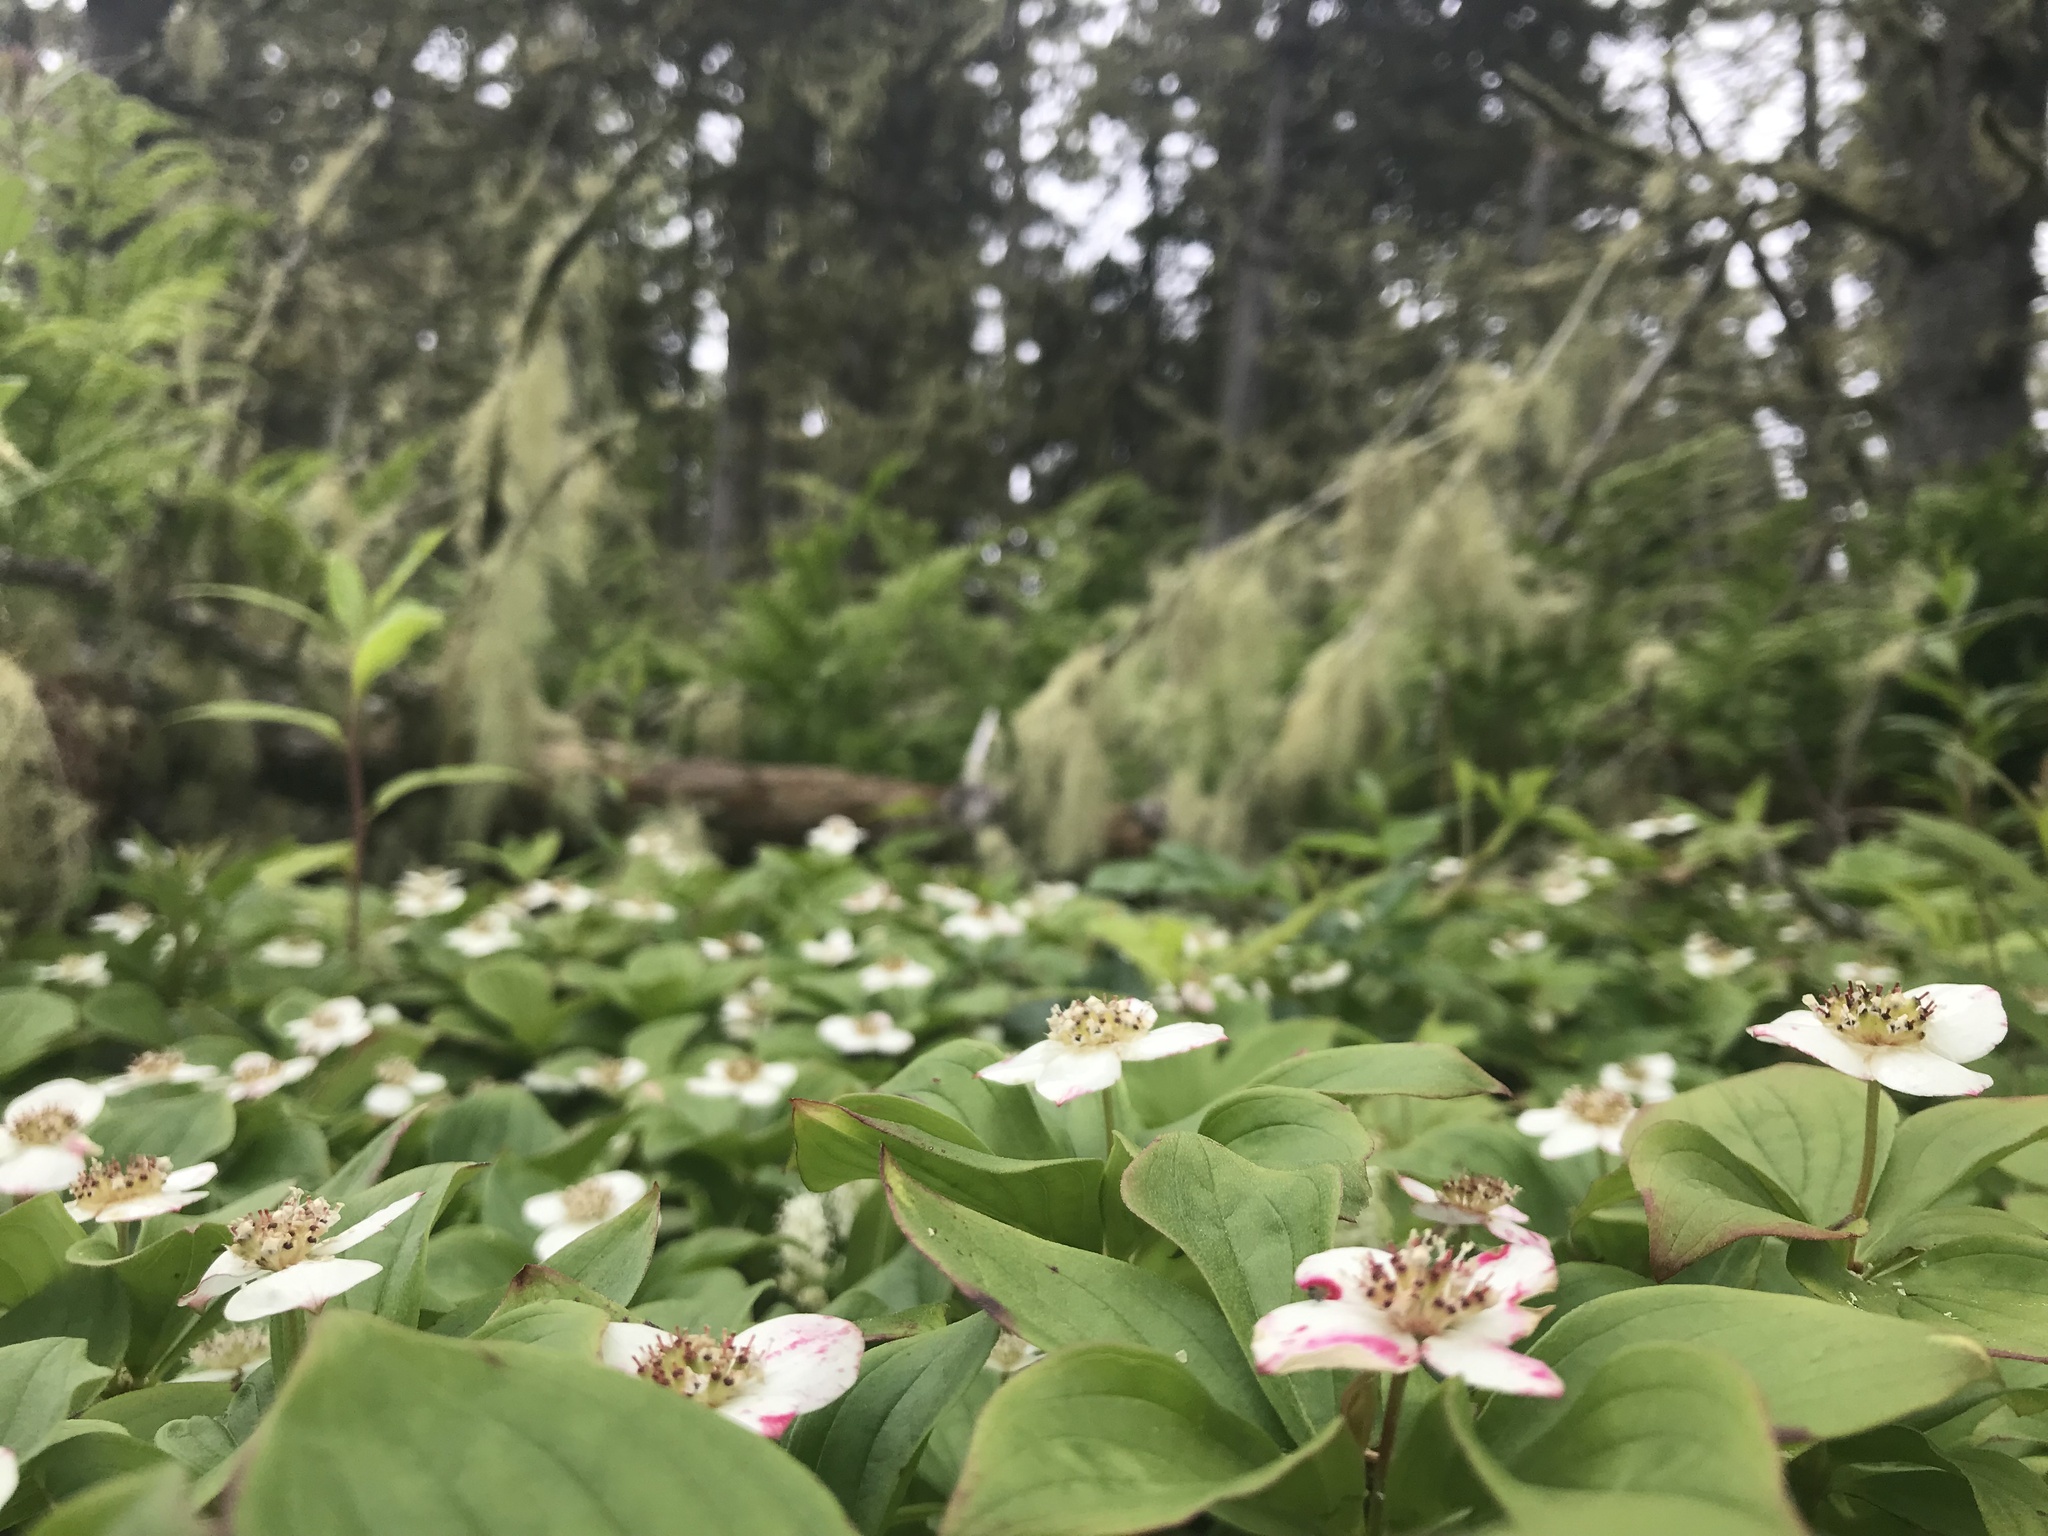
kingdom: Plantae
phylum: Tracheophyta
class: Magnoliopsida
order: Cornales
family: Cornaceae
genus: Cornus
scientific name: Cornus canadensis
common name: Creeping dogwood
